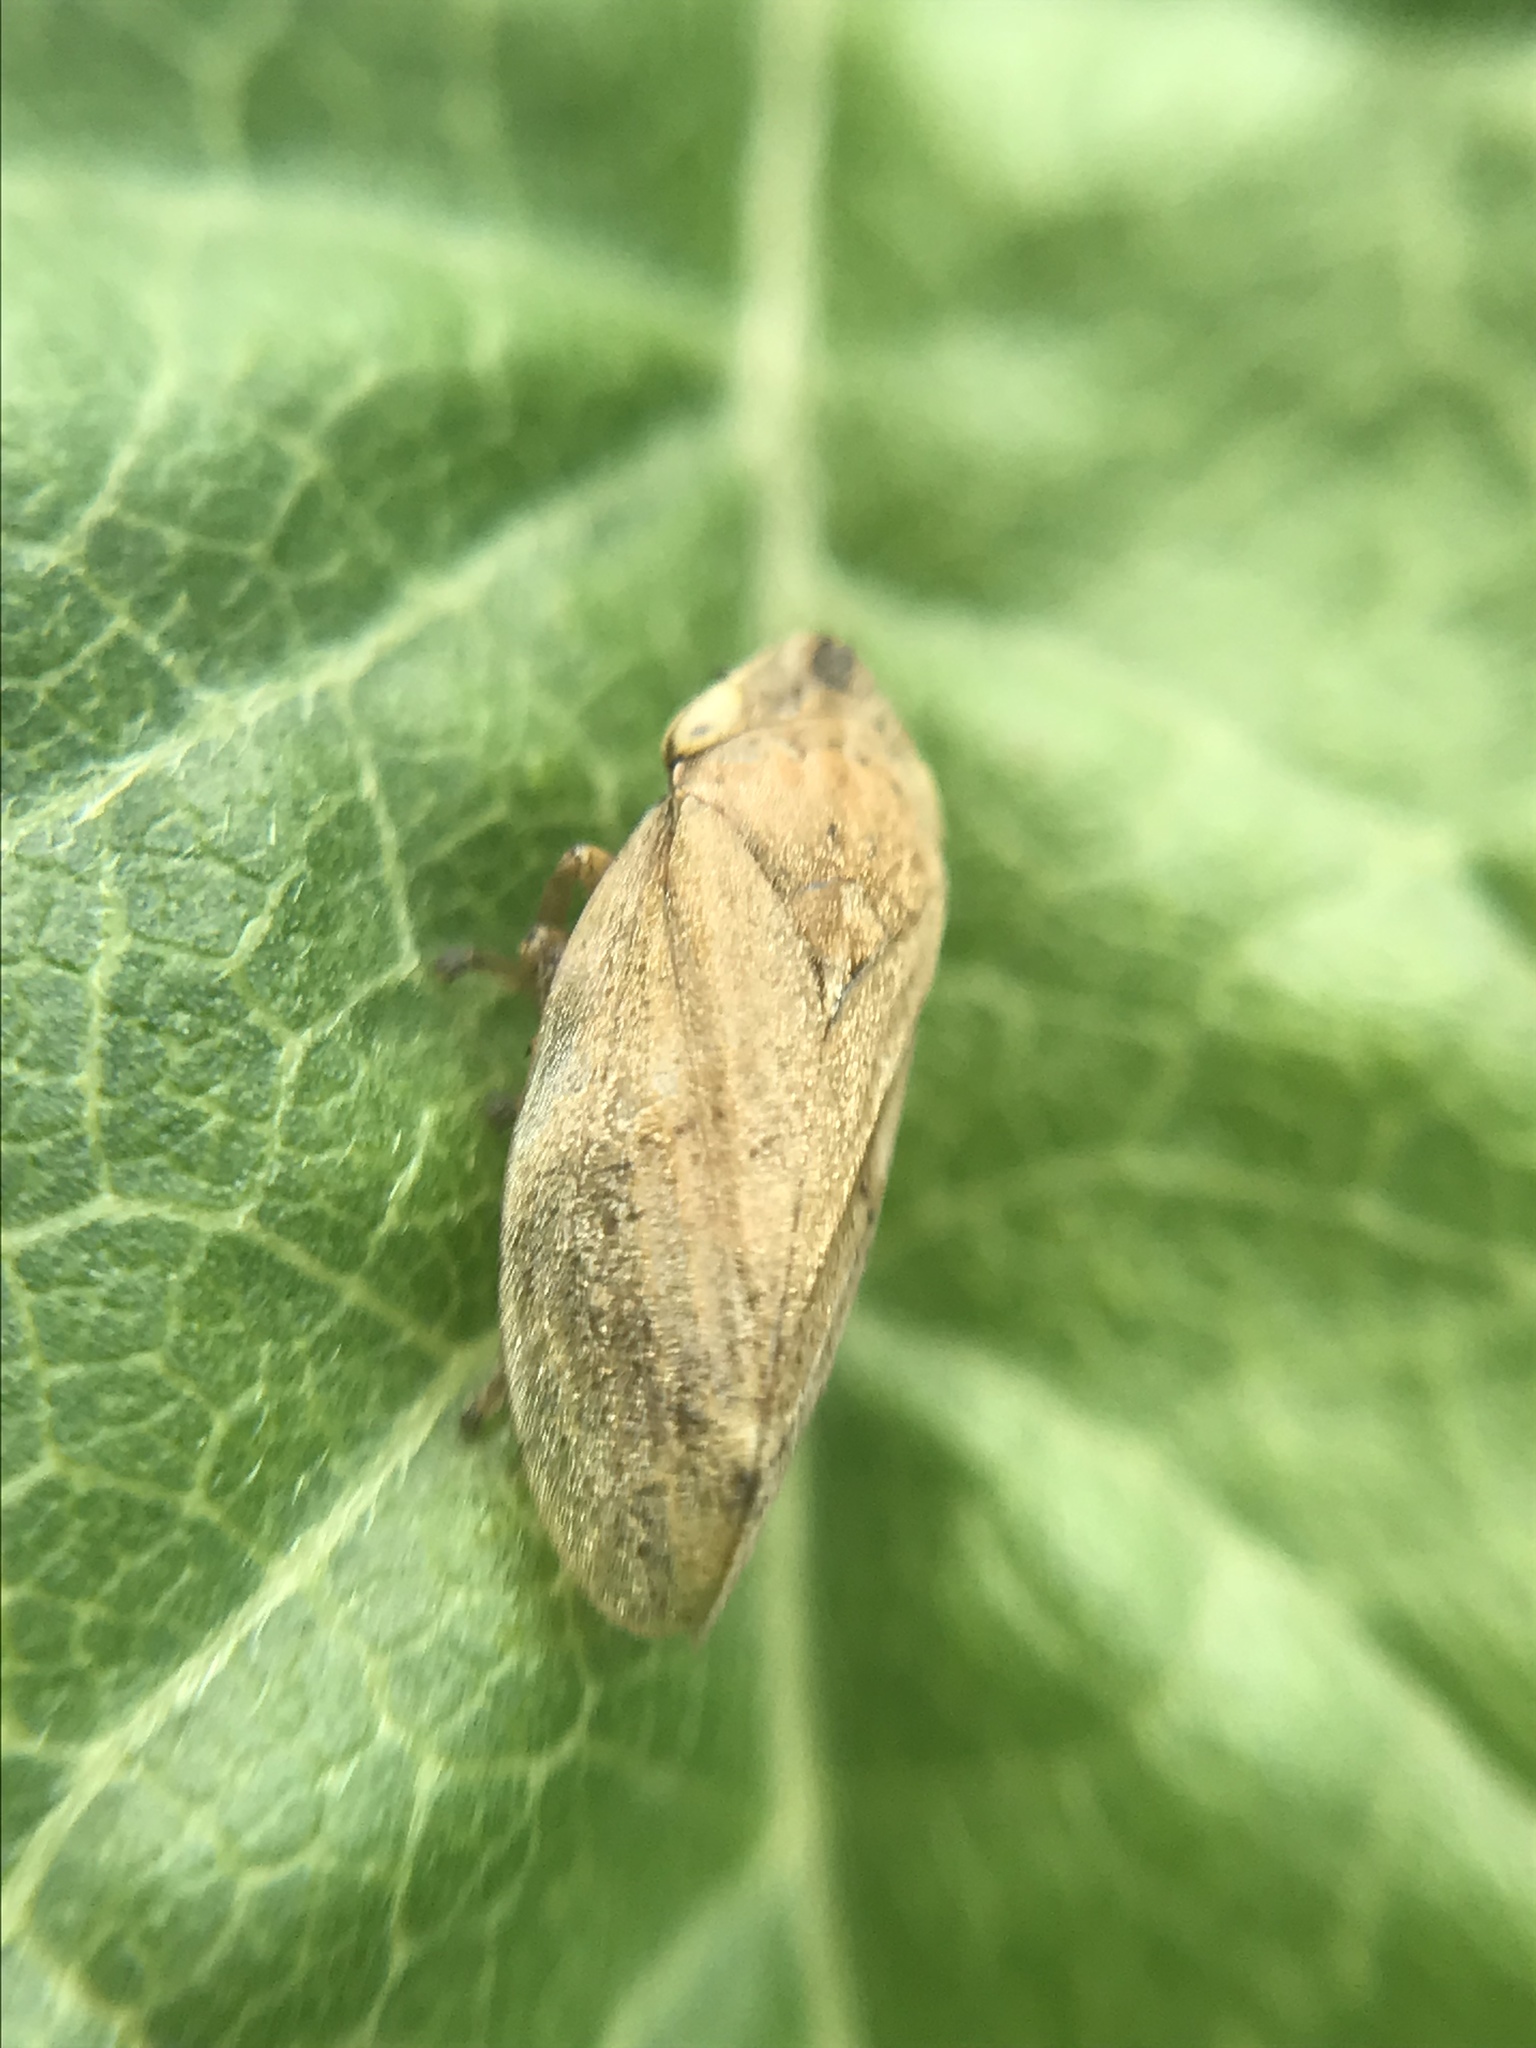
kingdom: Animalia
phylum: Arthropoda
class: Insecta
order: Hemiptera
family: Aphrophoridae
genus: Philaenus
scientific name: Philaenus spumarius
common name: Meadow spittlebug
